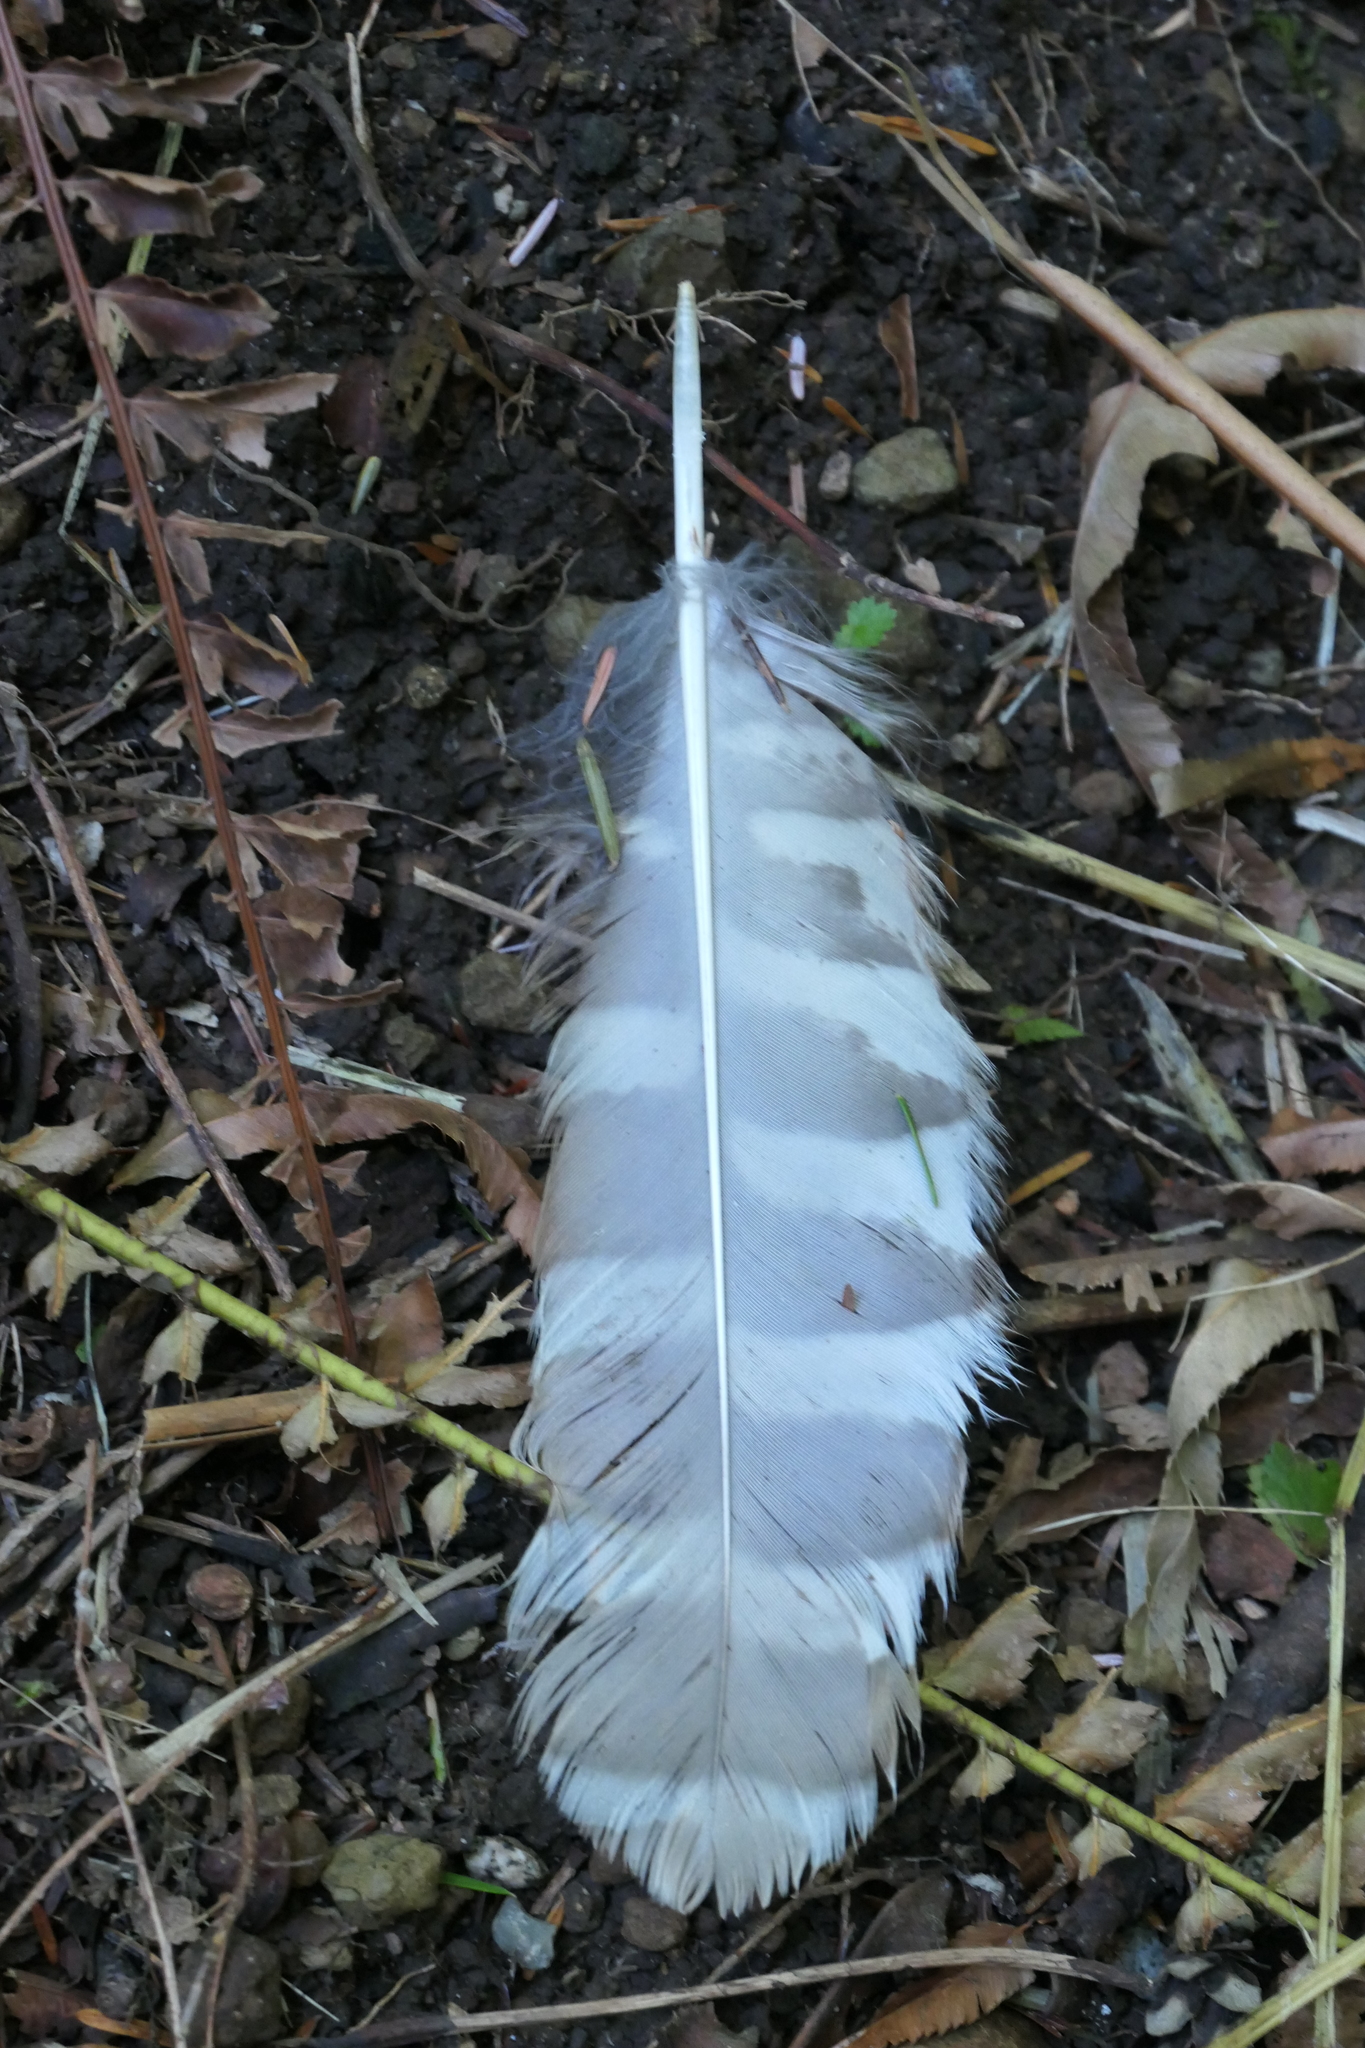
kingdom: Animalia
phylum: Chordata
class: Aves
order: Strigiformes
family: Strigidae
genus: Strix
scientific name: Strix varia
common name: Barred owl
